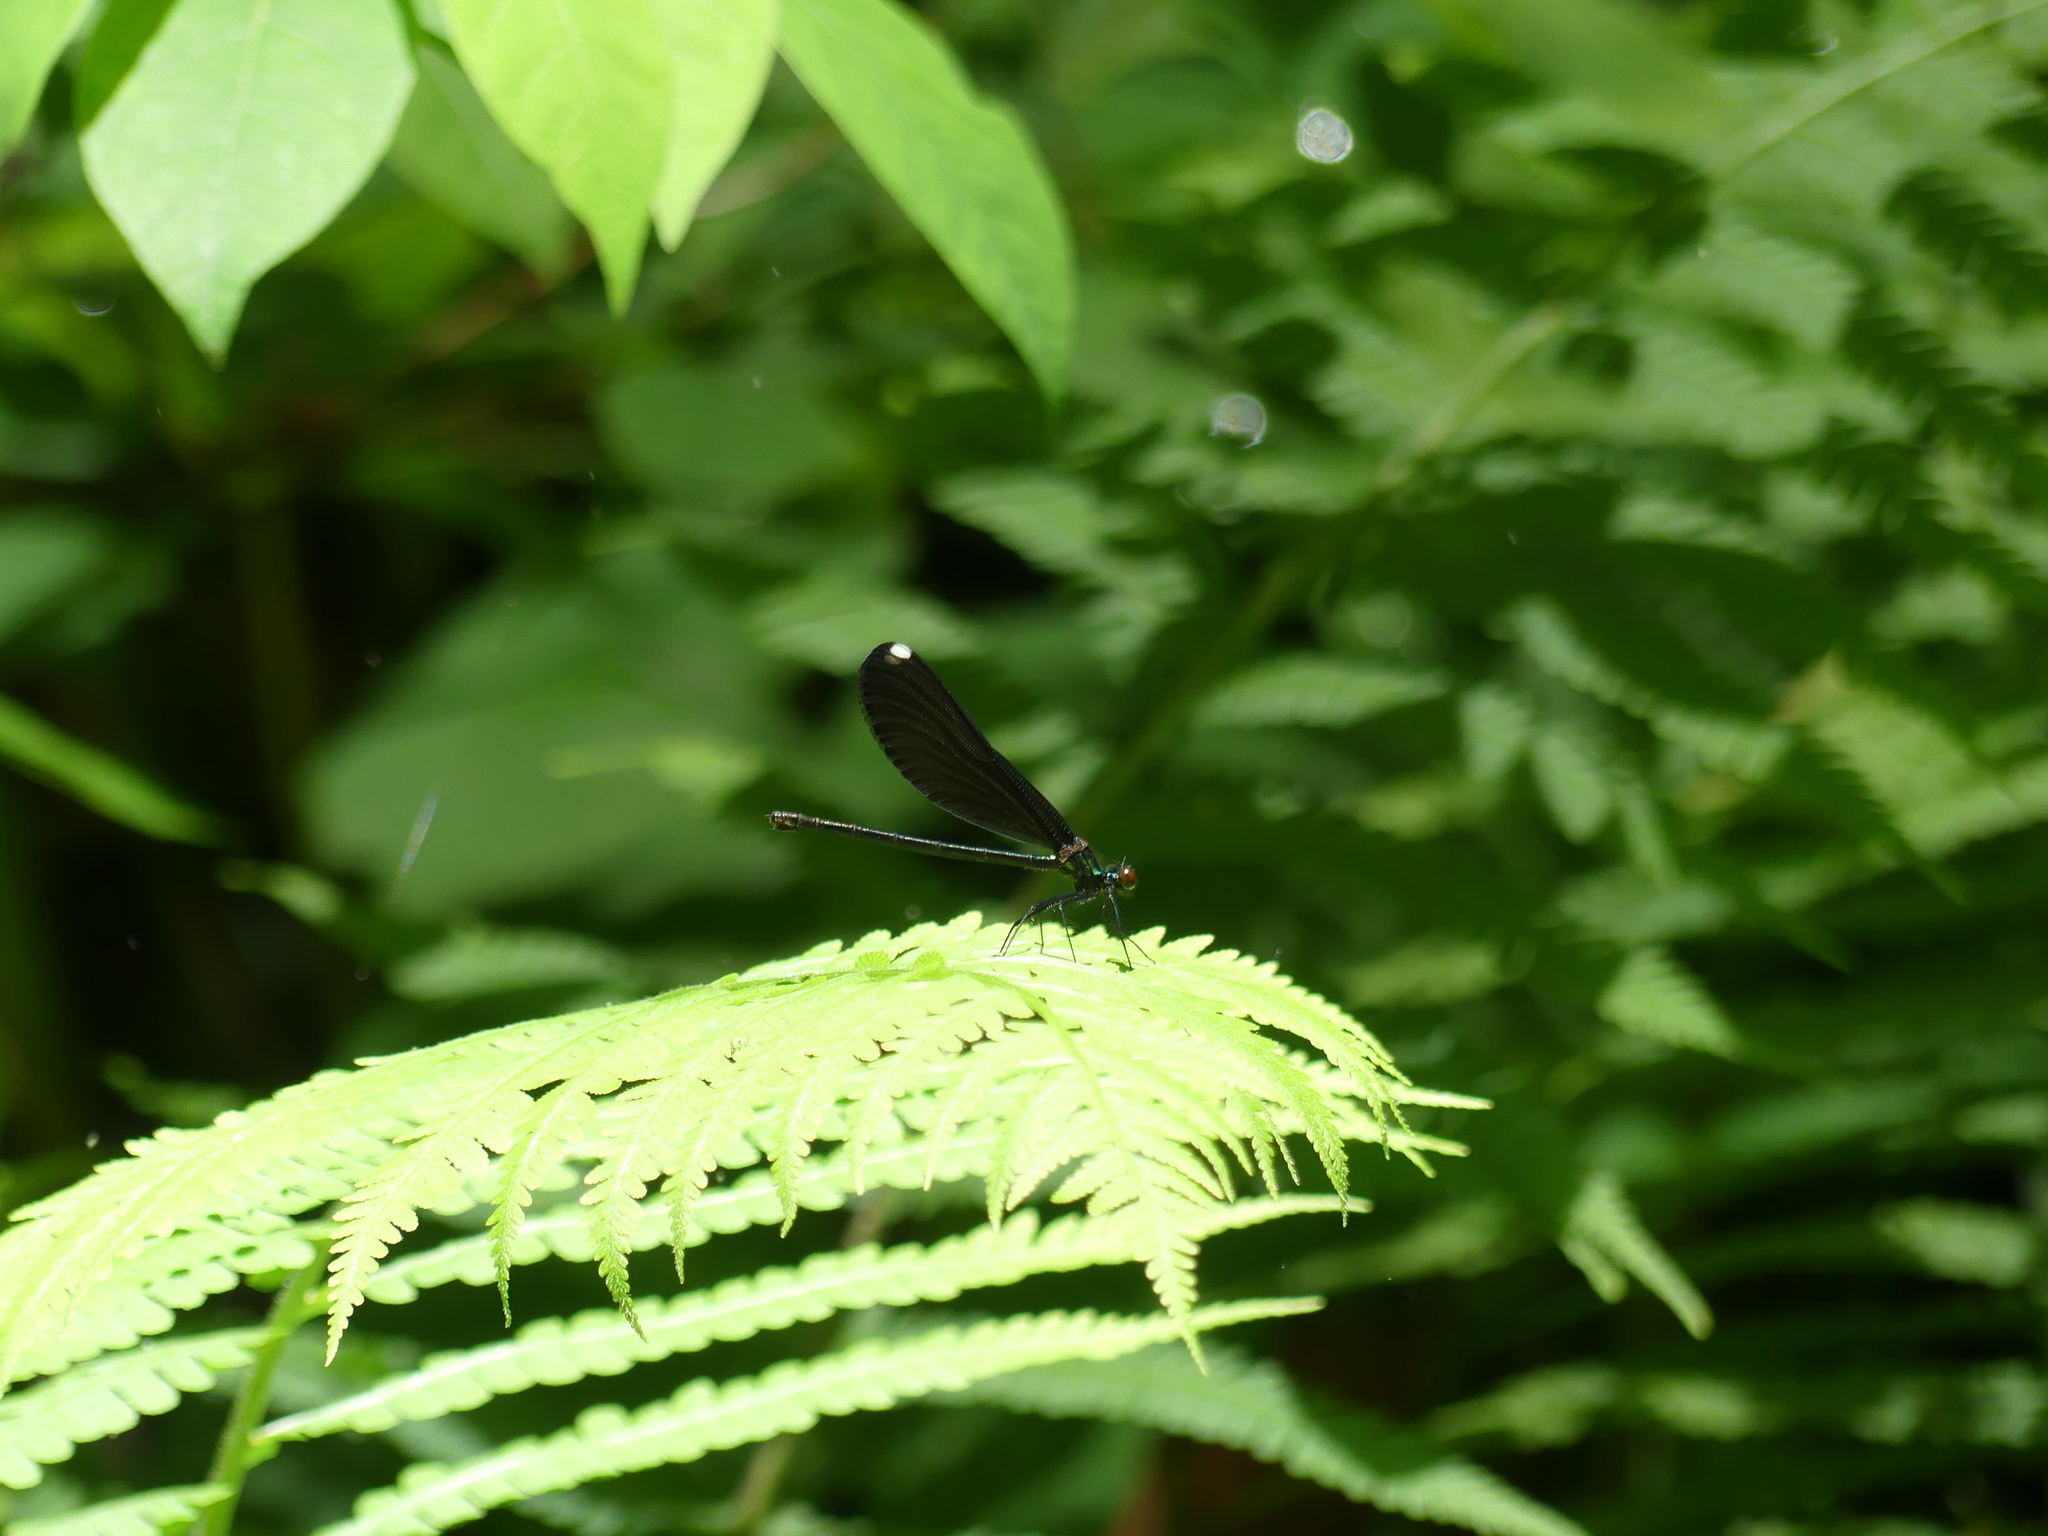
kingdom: Animalia
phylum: Arthropoda
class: Insecta
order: Odonata
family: Calopterygidae
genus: Calopteryx
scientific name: Calopteryx maculata
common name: Ebony jewelwing
